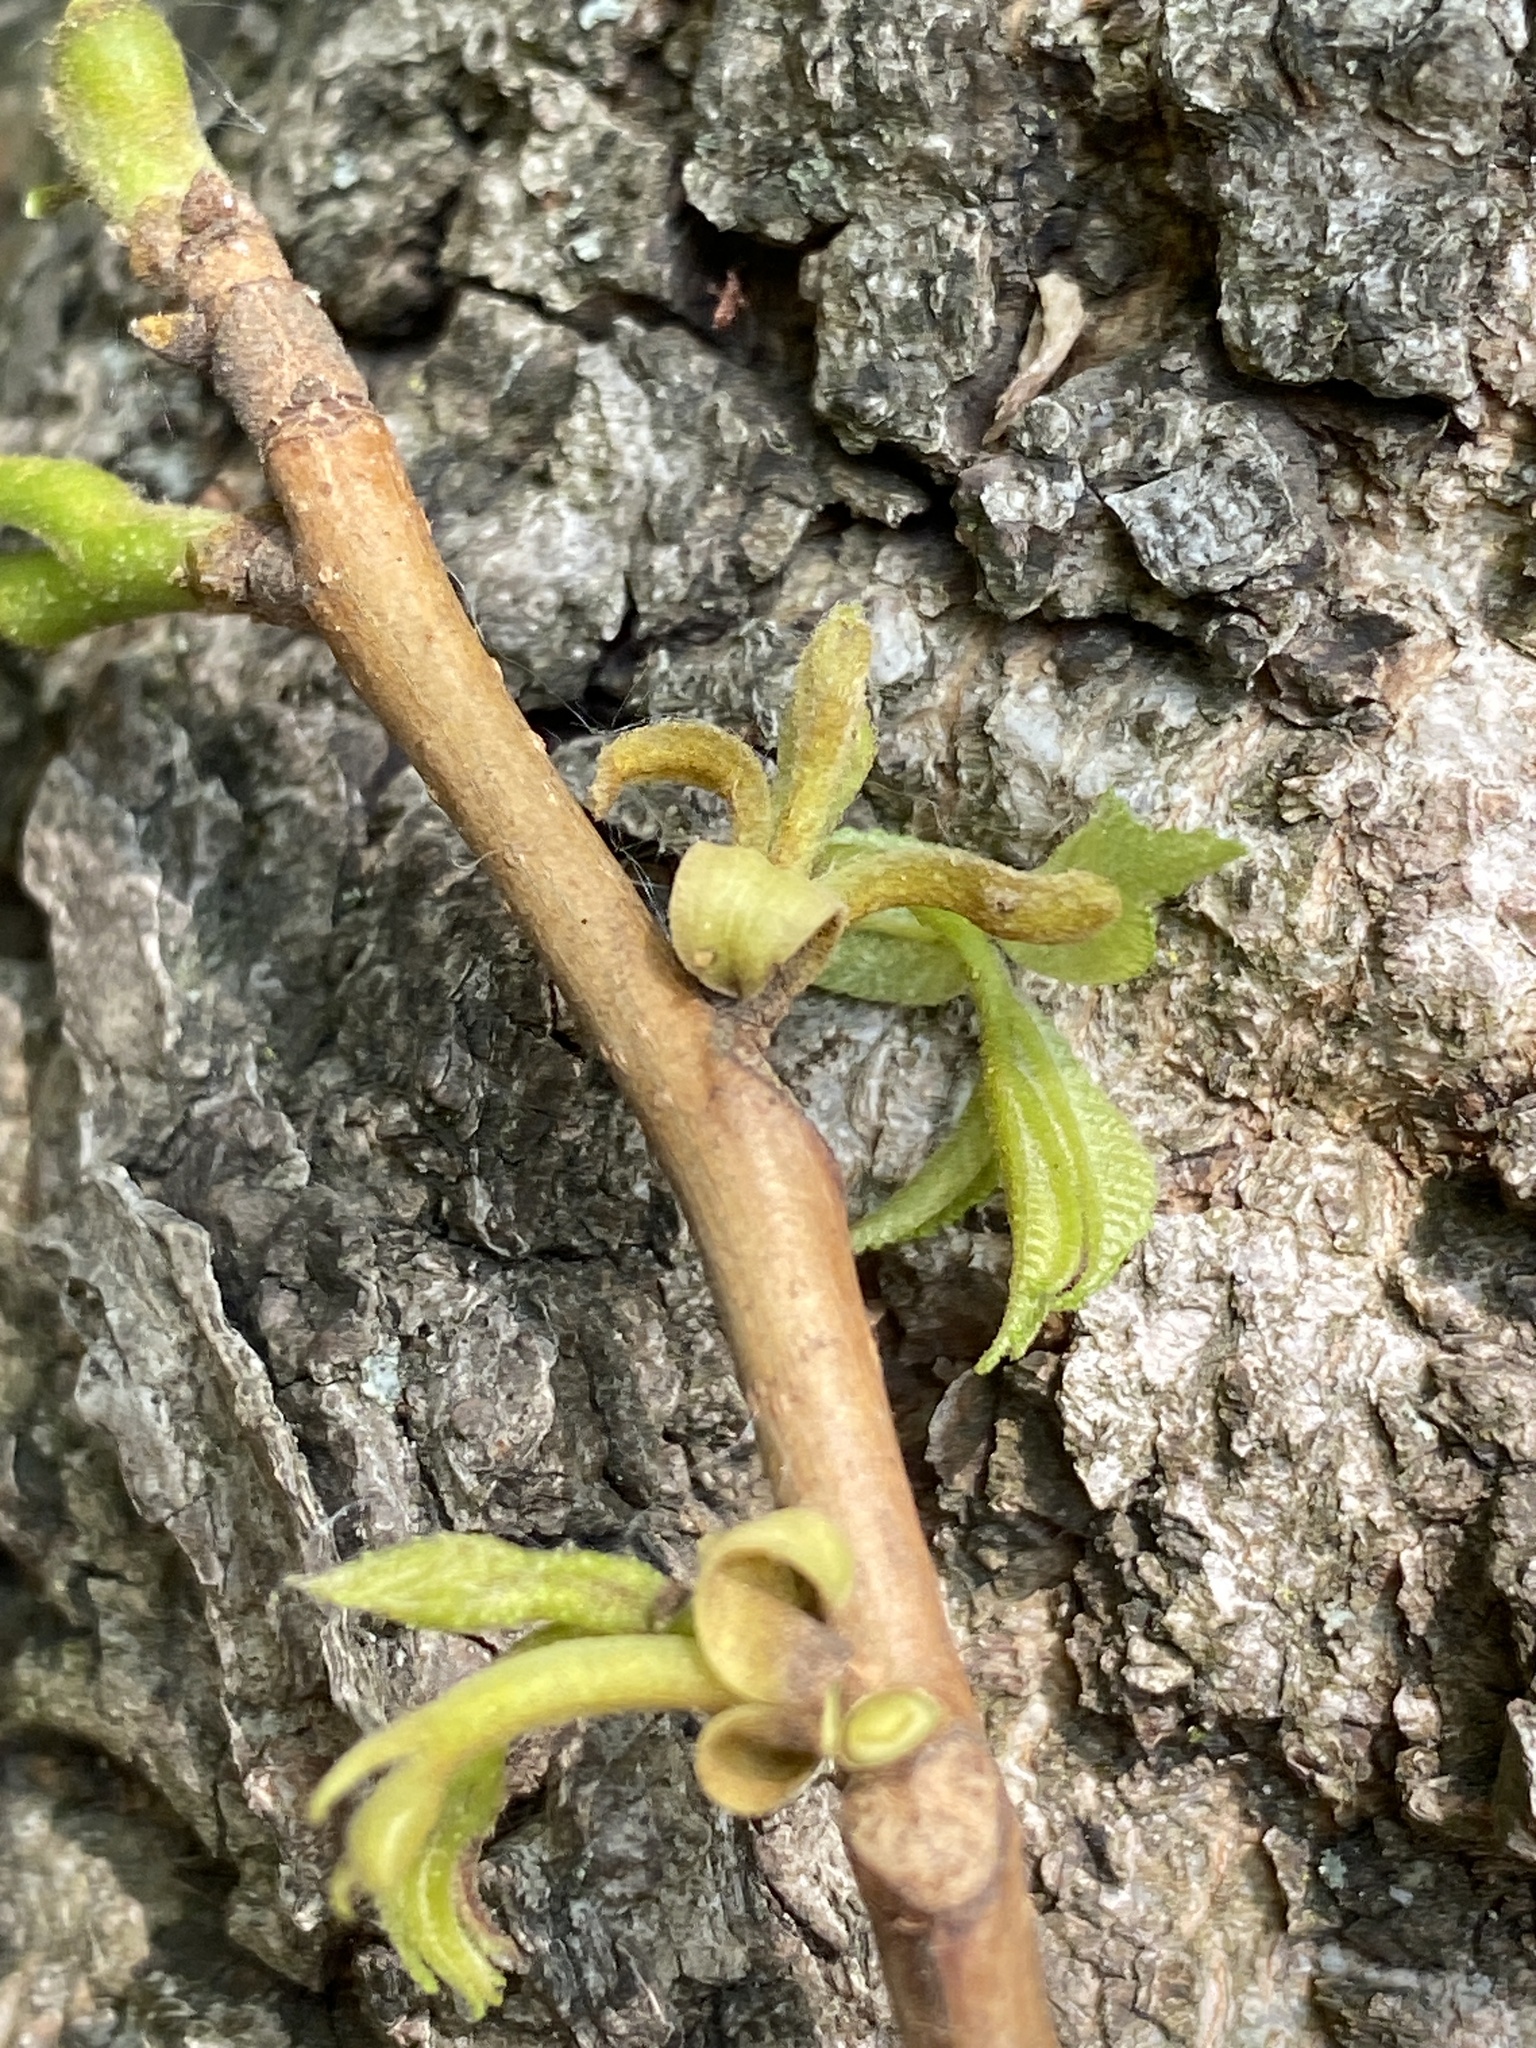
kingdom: Plantae
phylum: Tracheophyta
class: Magnoliopsida
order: Fagales
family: Juglandaceae
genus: Carya
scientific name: Carya cordiformis
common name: Bitternut hickory
